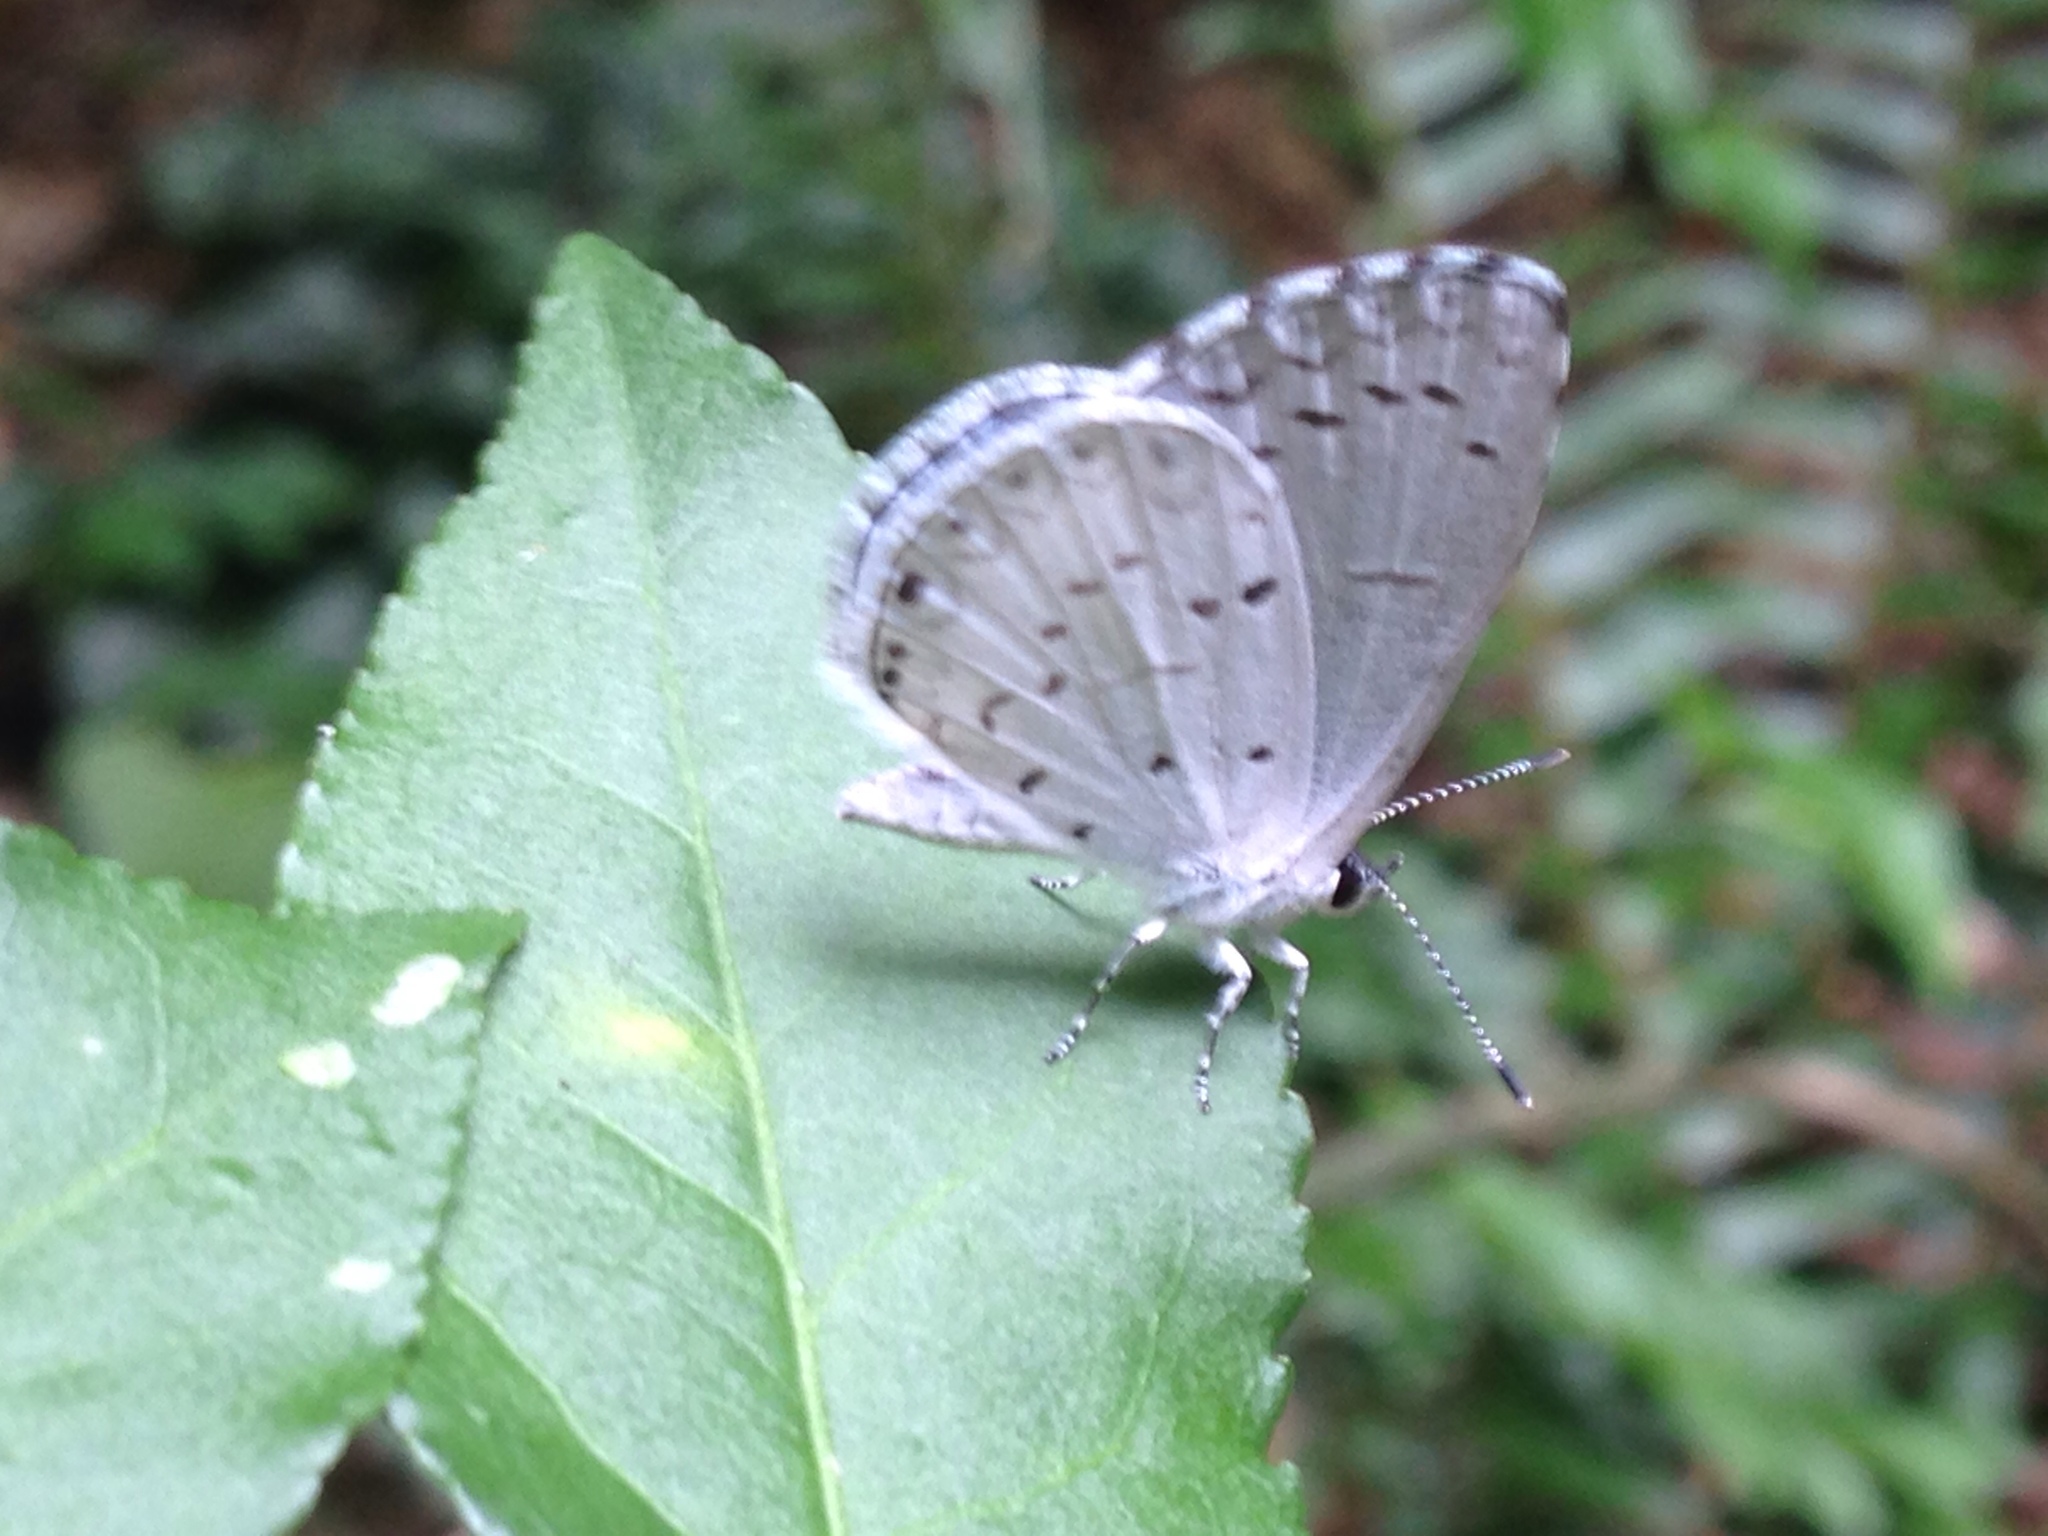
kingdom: Animalia
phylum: Arthropoda
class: Insecta
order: Lepidoptera
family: Lycaenidae
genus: Cyaniris
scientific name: Cyaniris neglecta
